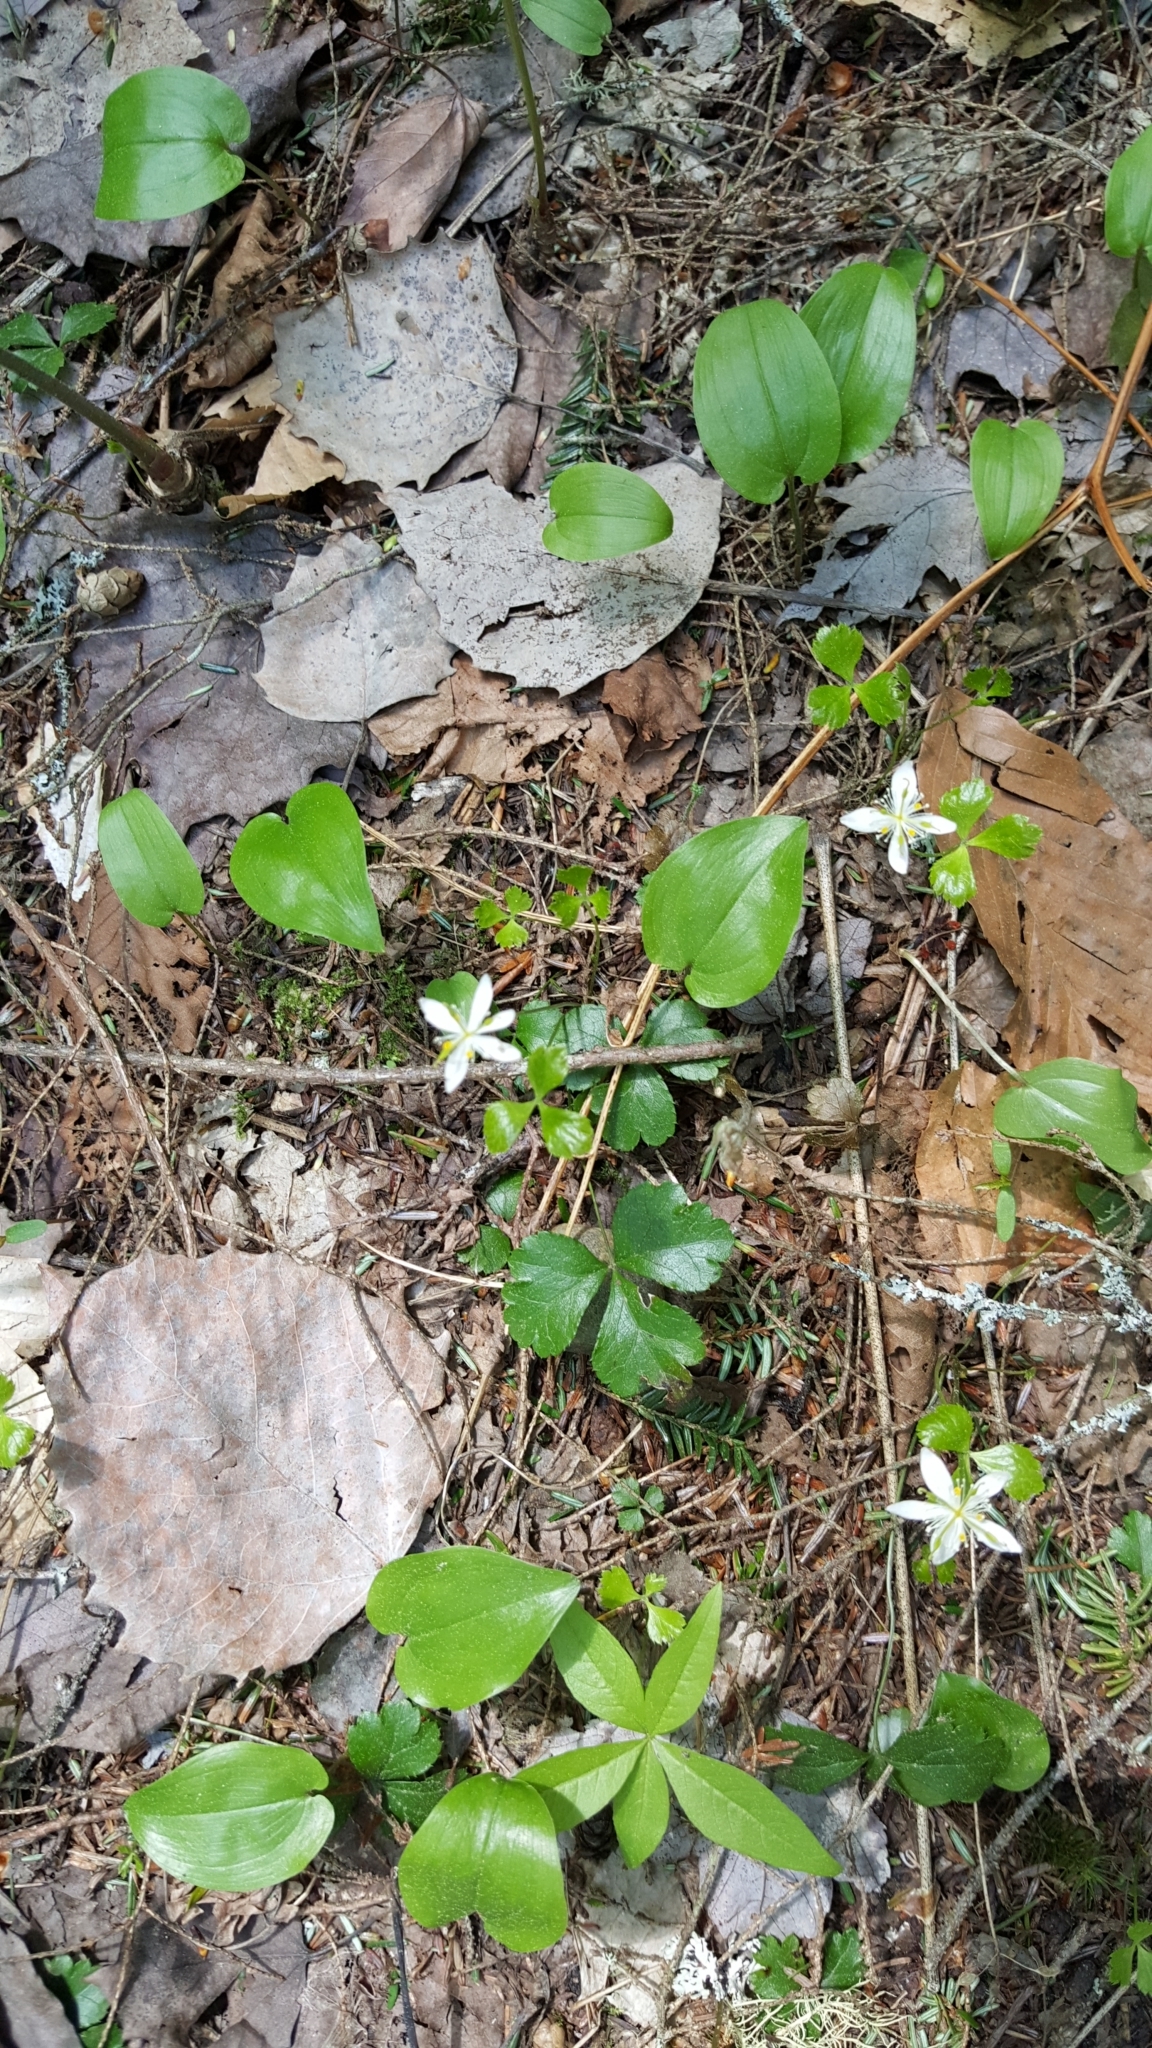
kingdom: Plantae
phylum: Tracheophyta
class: Magnoliopsida
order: Ranunculales
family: Ranunculaceae
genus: Coptis
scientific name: Coptis trifolia
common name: Canker-root
